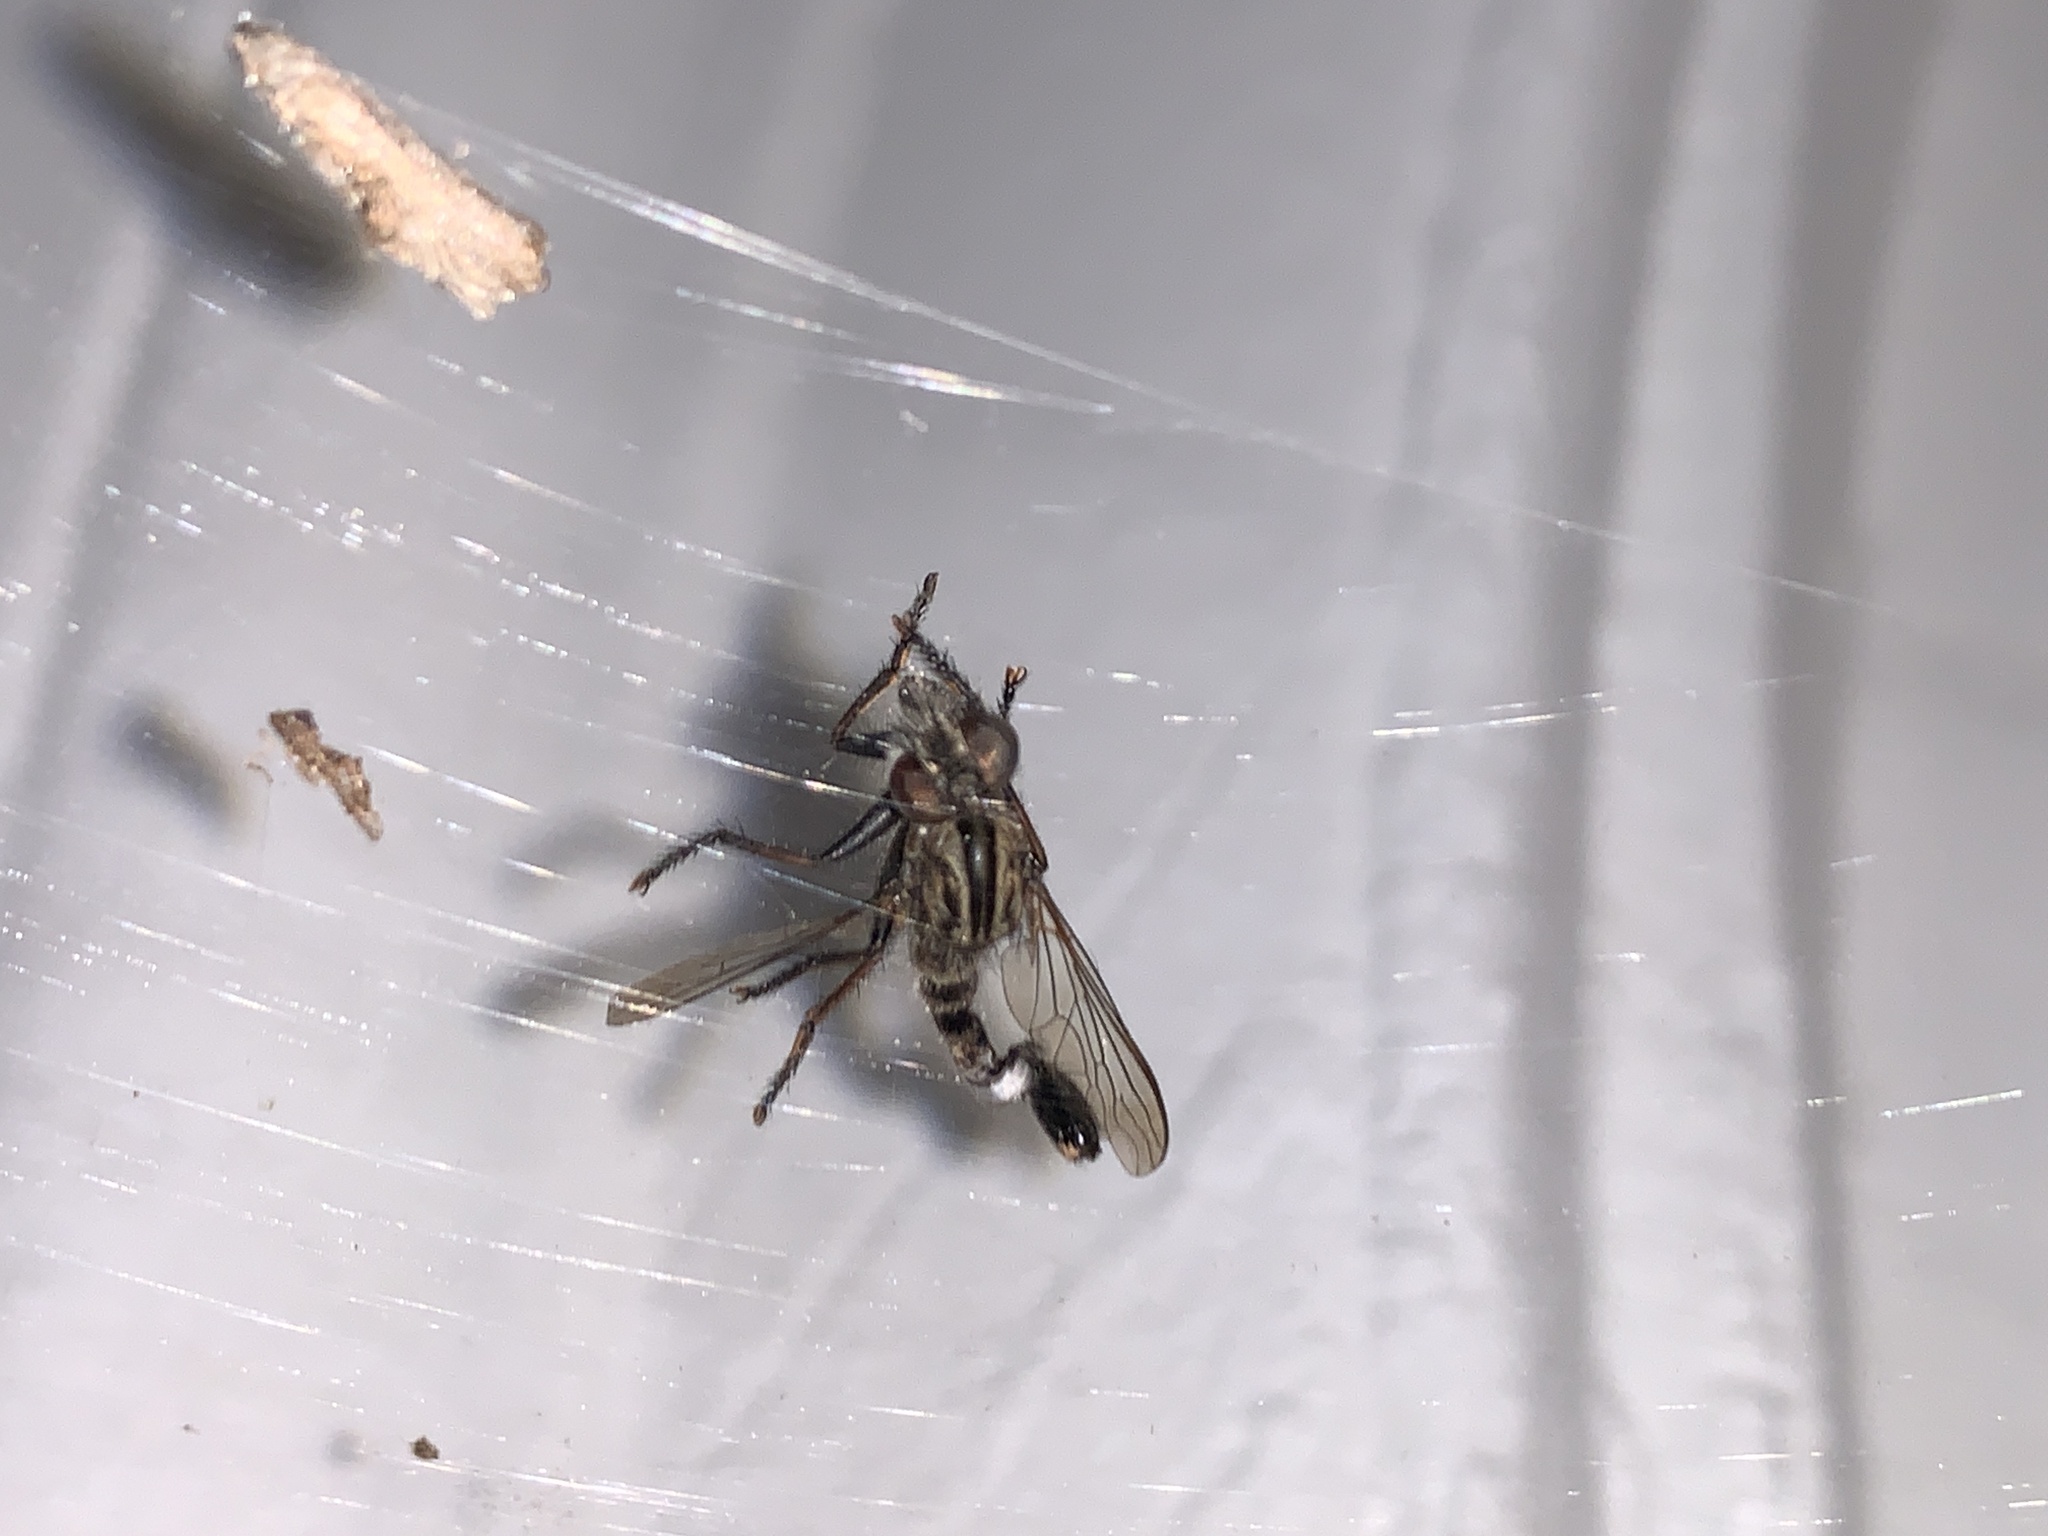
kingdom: Animalia
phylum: Arthropoda
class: Insecta
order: Diptera
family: Asilidae
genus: Efferia
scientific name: Efferia aestuans
